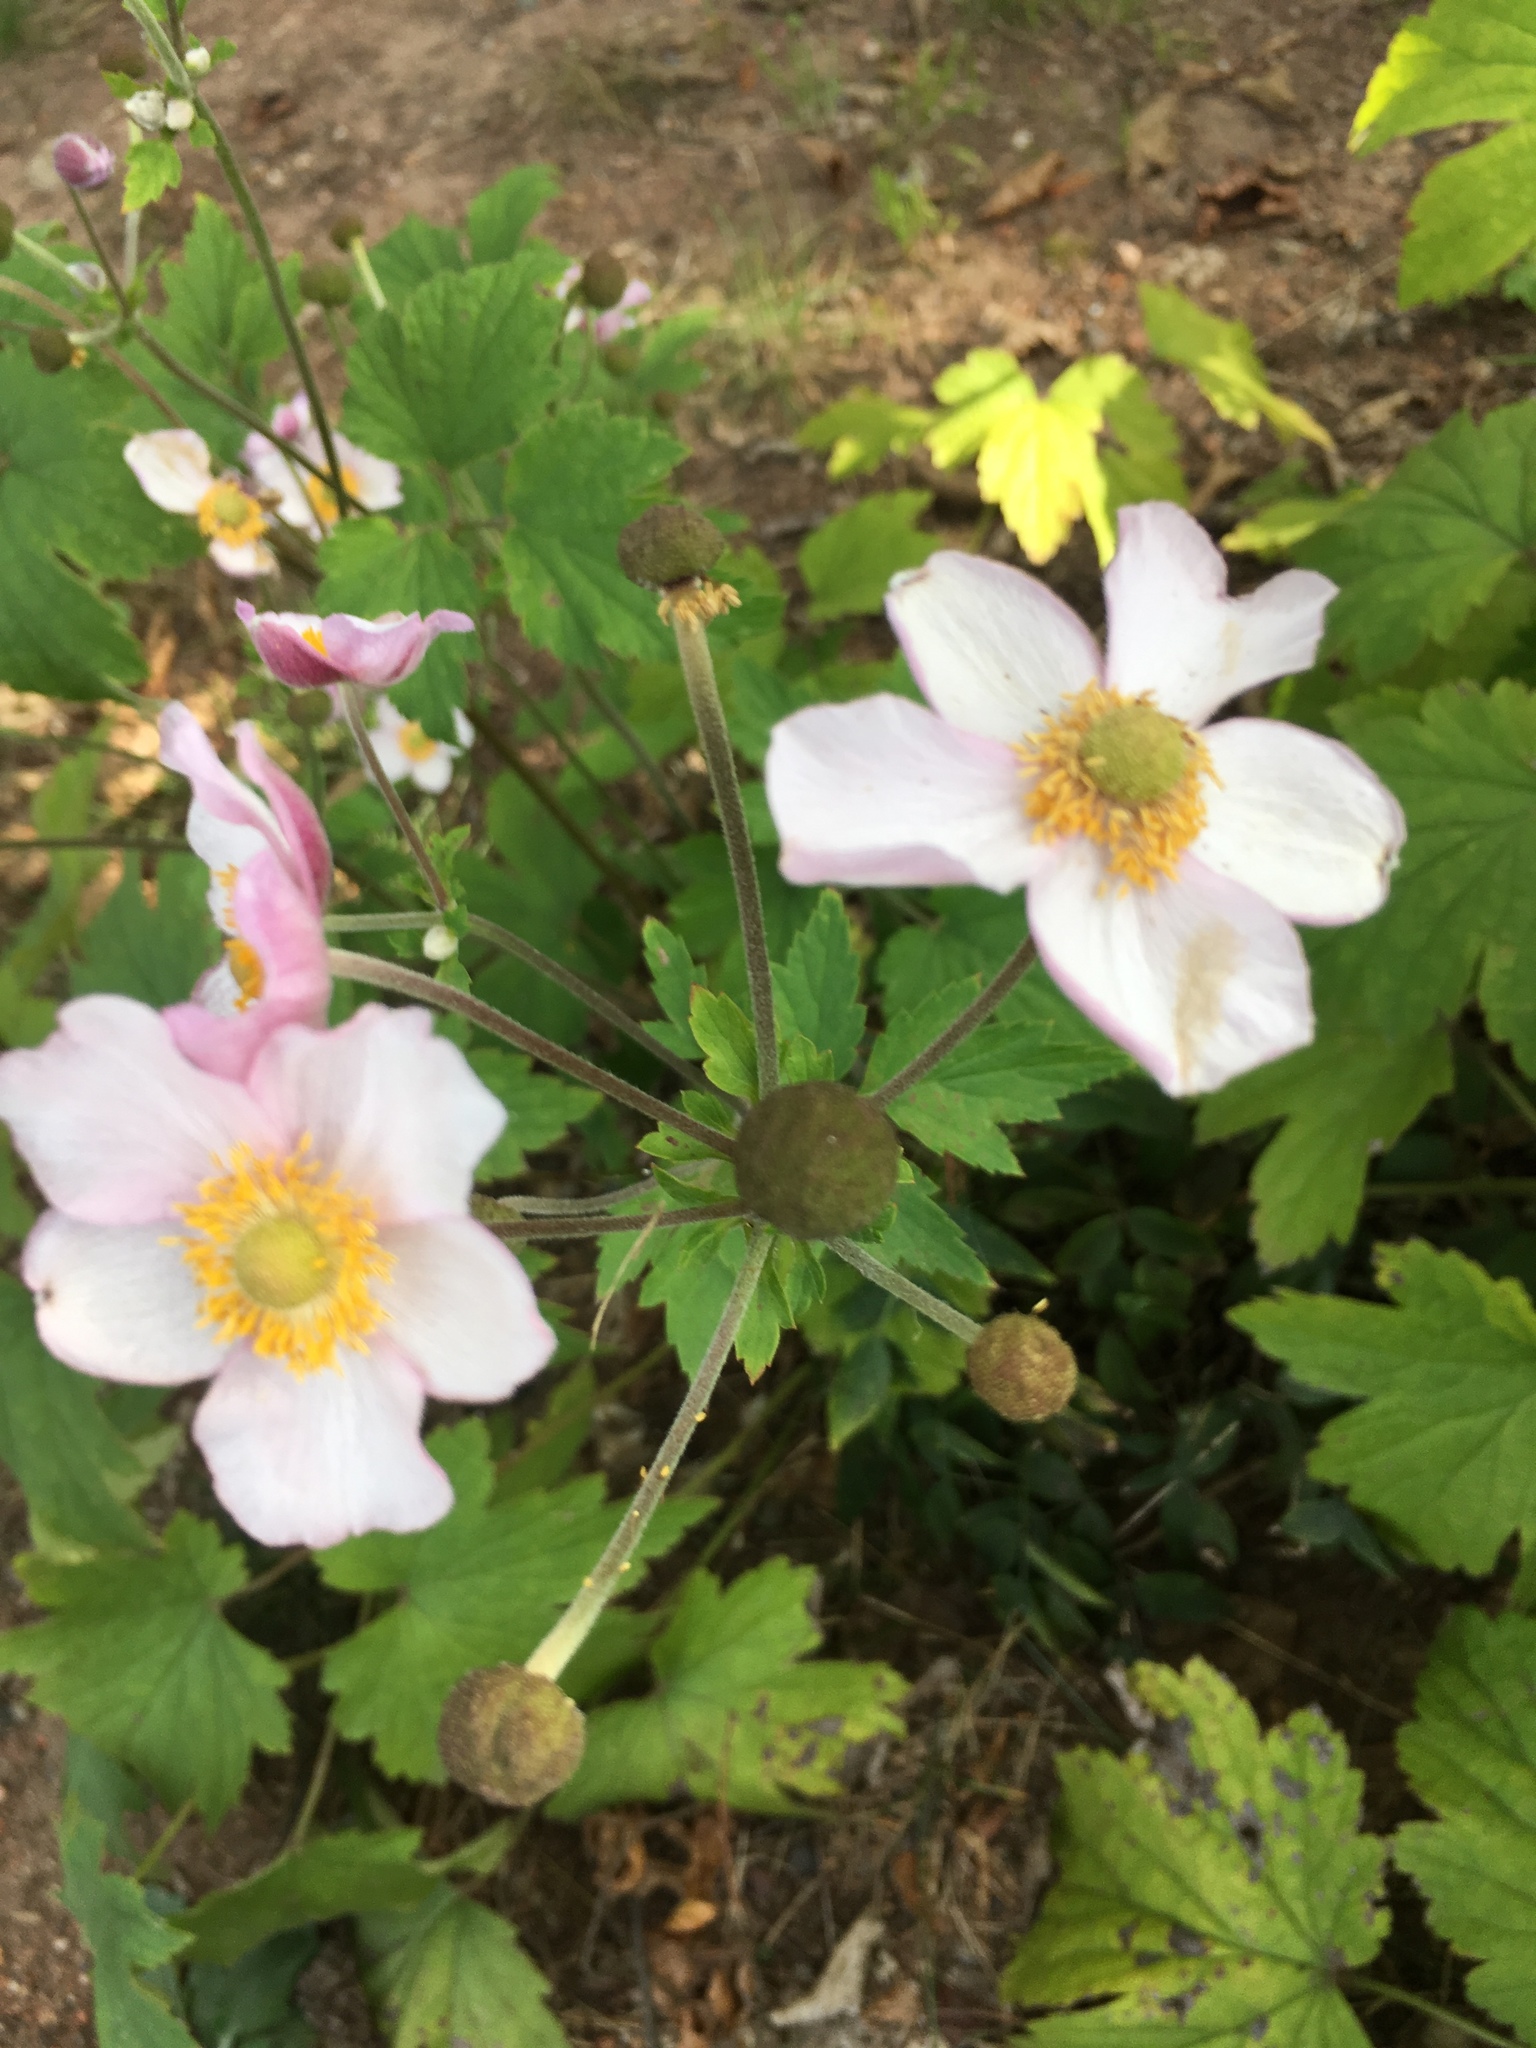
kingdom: Plantae
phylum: Tracheophyta
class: Magnoliopsida
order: Ranunculales
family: Ranunculaceae
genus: Eriocapitella
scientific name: Eriocapitella hupehensis
